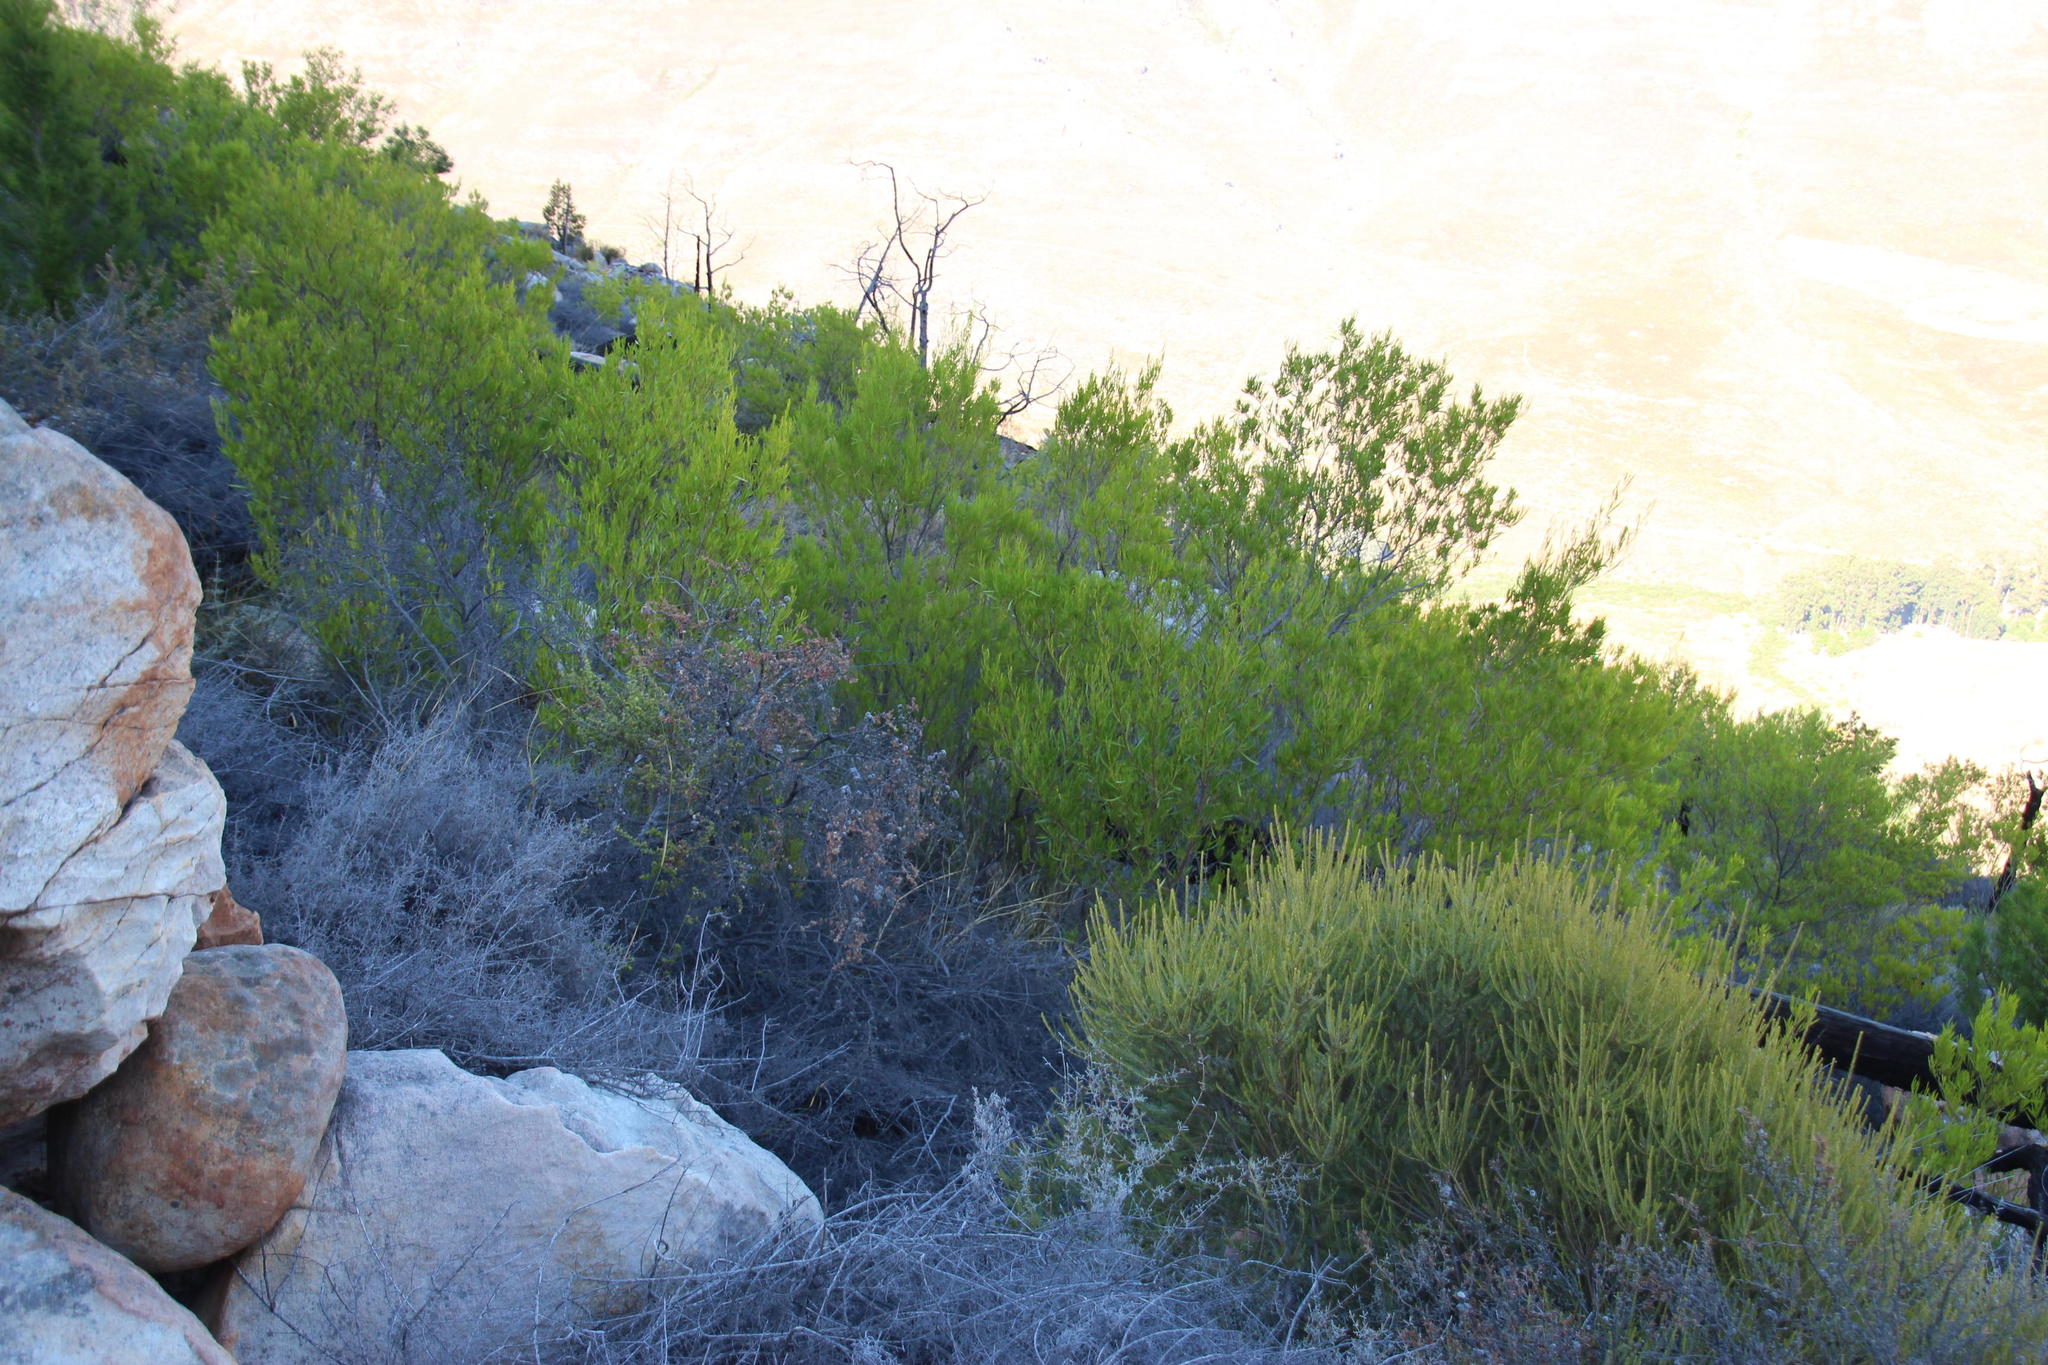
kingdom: Plantae
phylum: Tracheophyta
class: Magnoliopsida
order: Sapindales
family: Sapindaceae
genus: Dodonaea
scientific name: Dodonaea viscosa
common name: Hopbush
